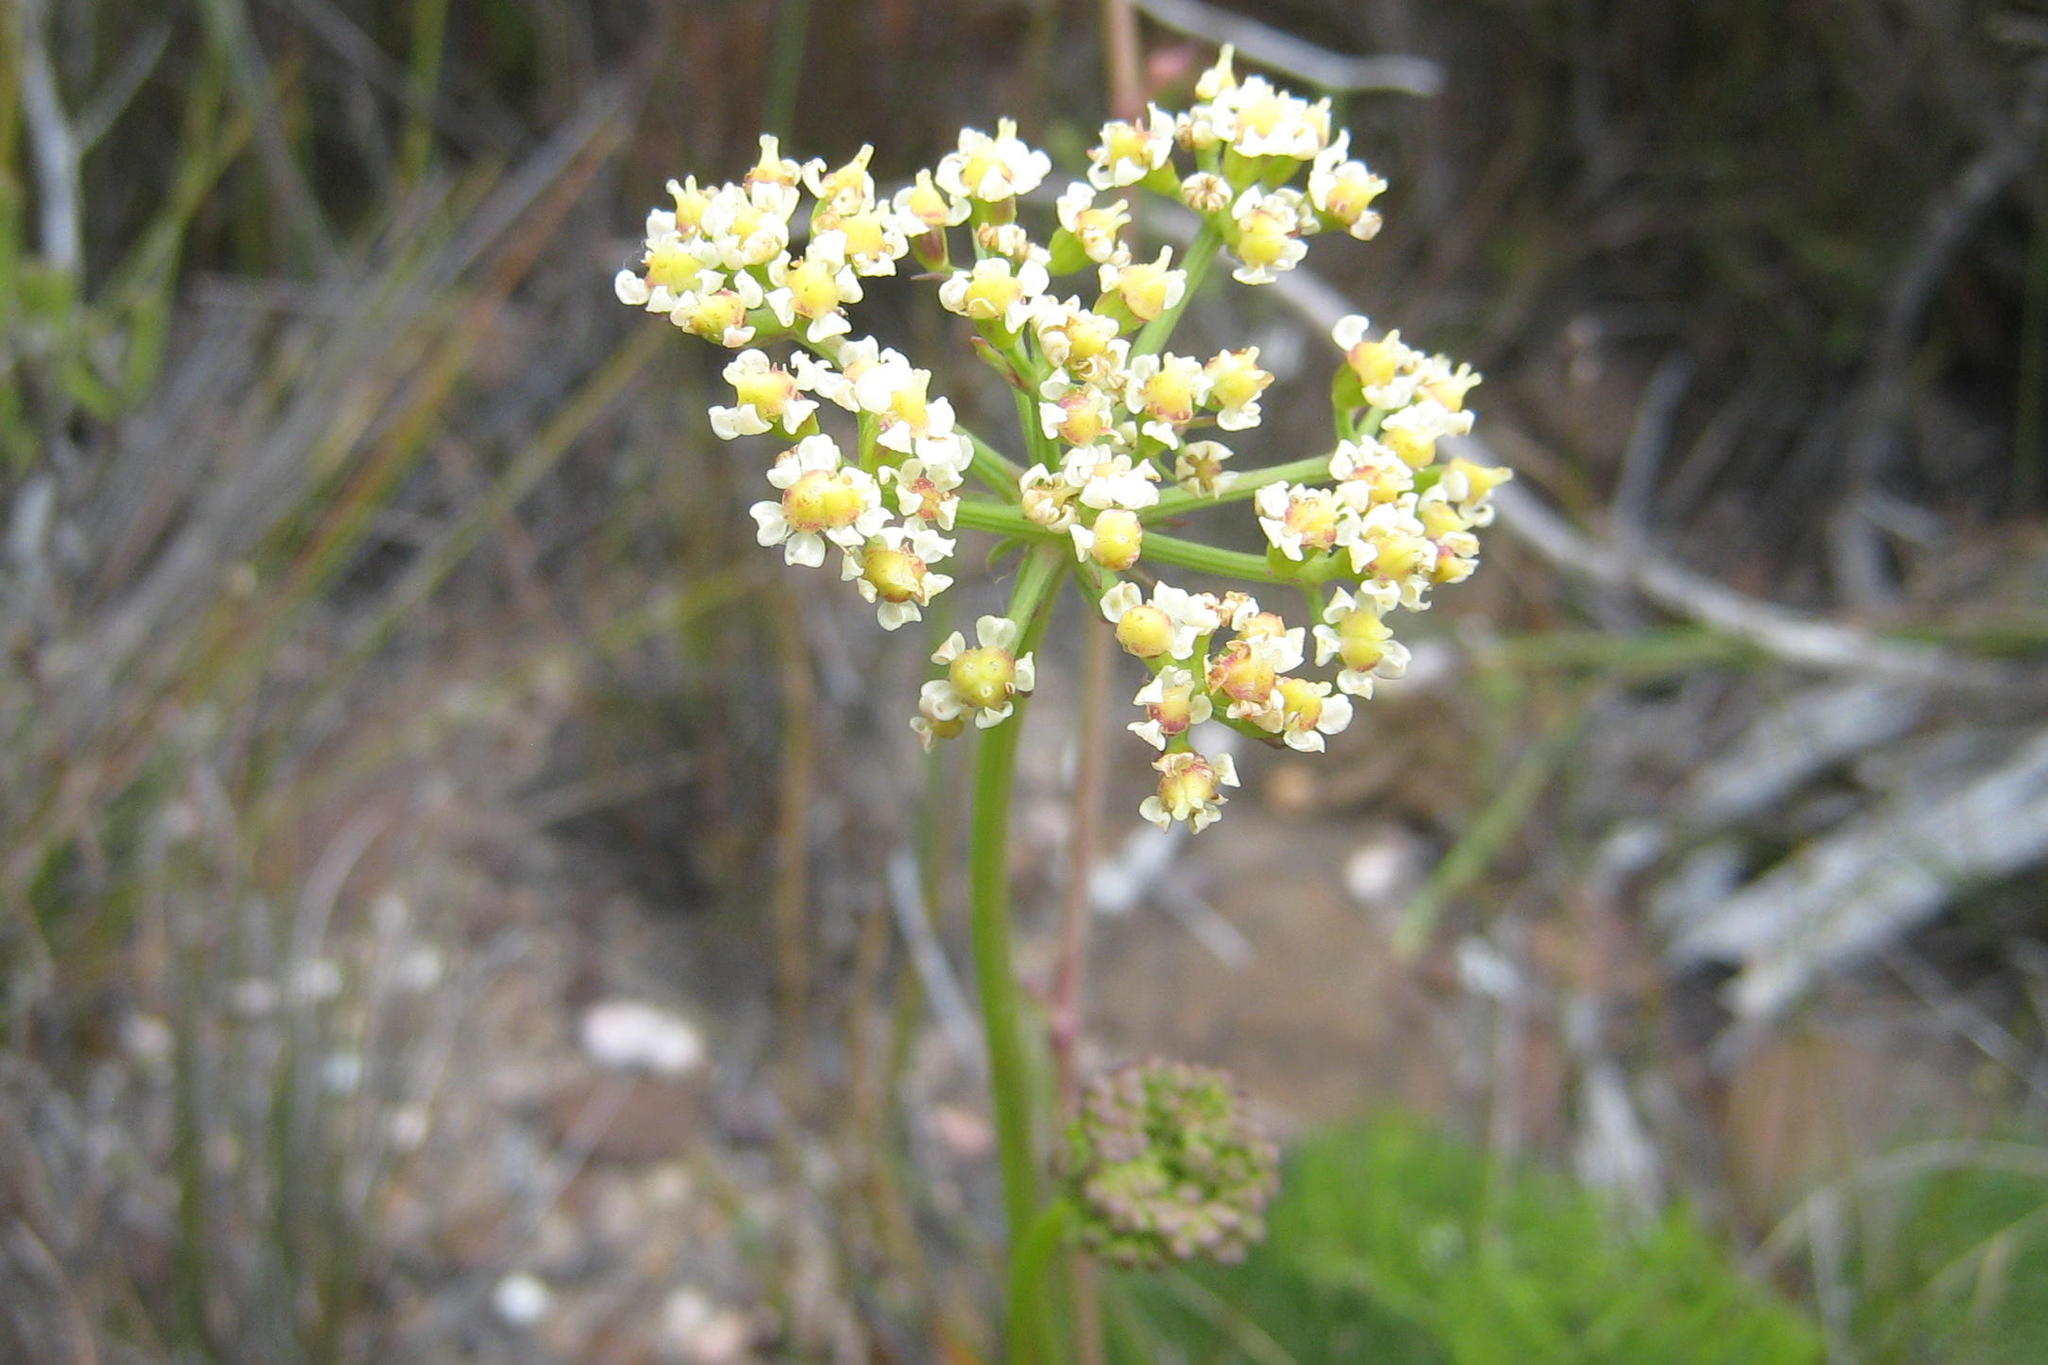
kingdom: Plantae
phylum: Tracheophyta
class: Magnoliopsida
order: Apiales
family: Apiaceae
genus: Nanobubon
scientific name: Nanobubon capillaceum
